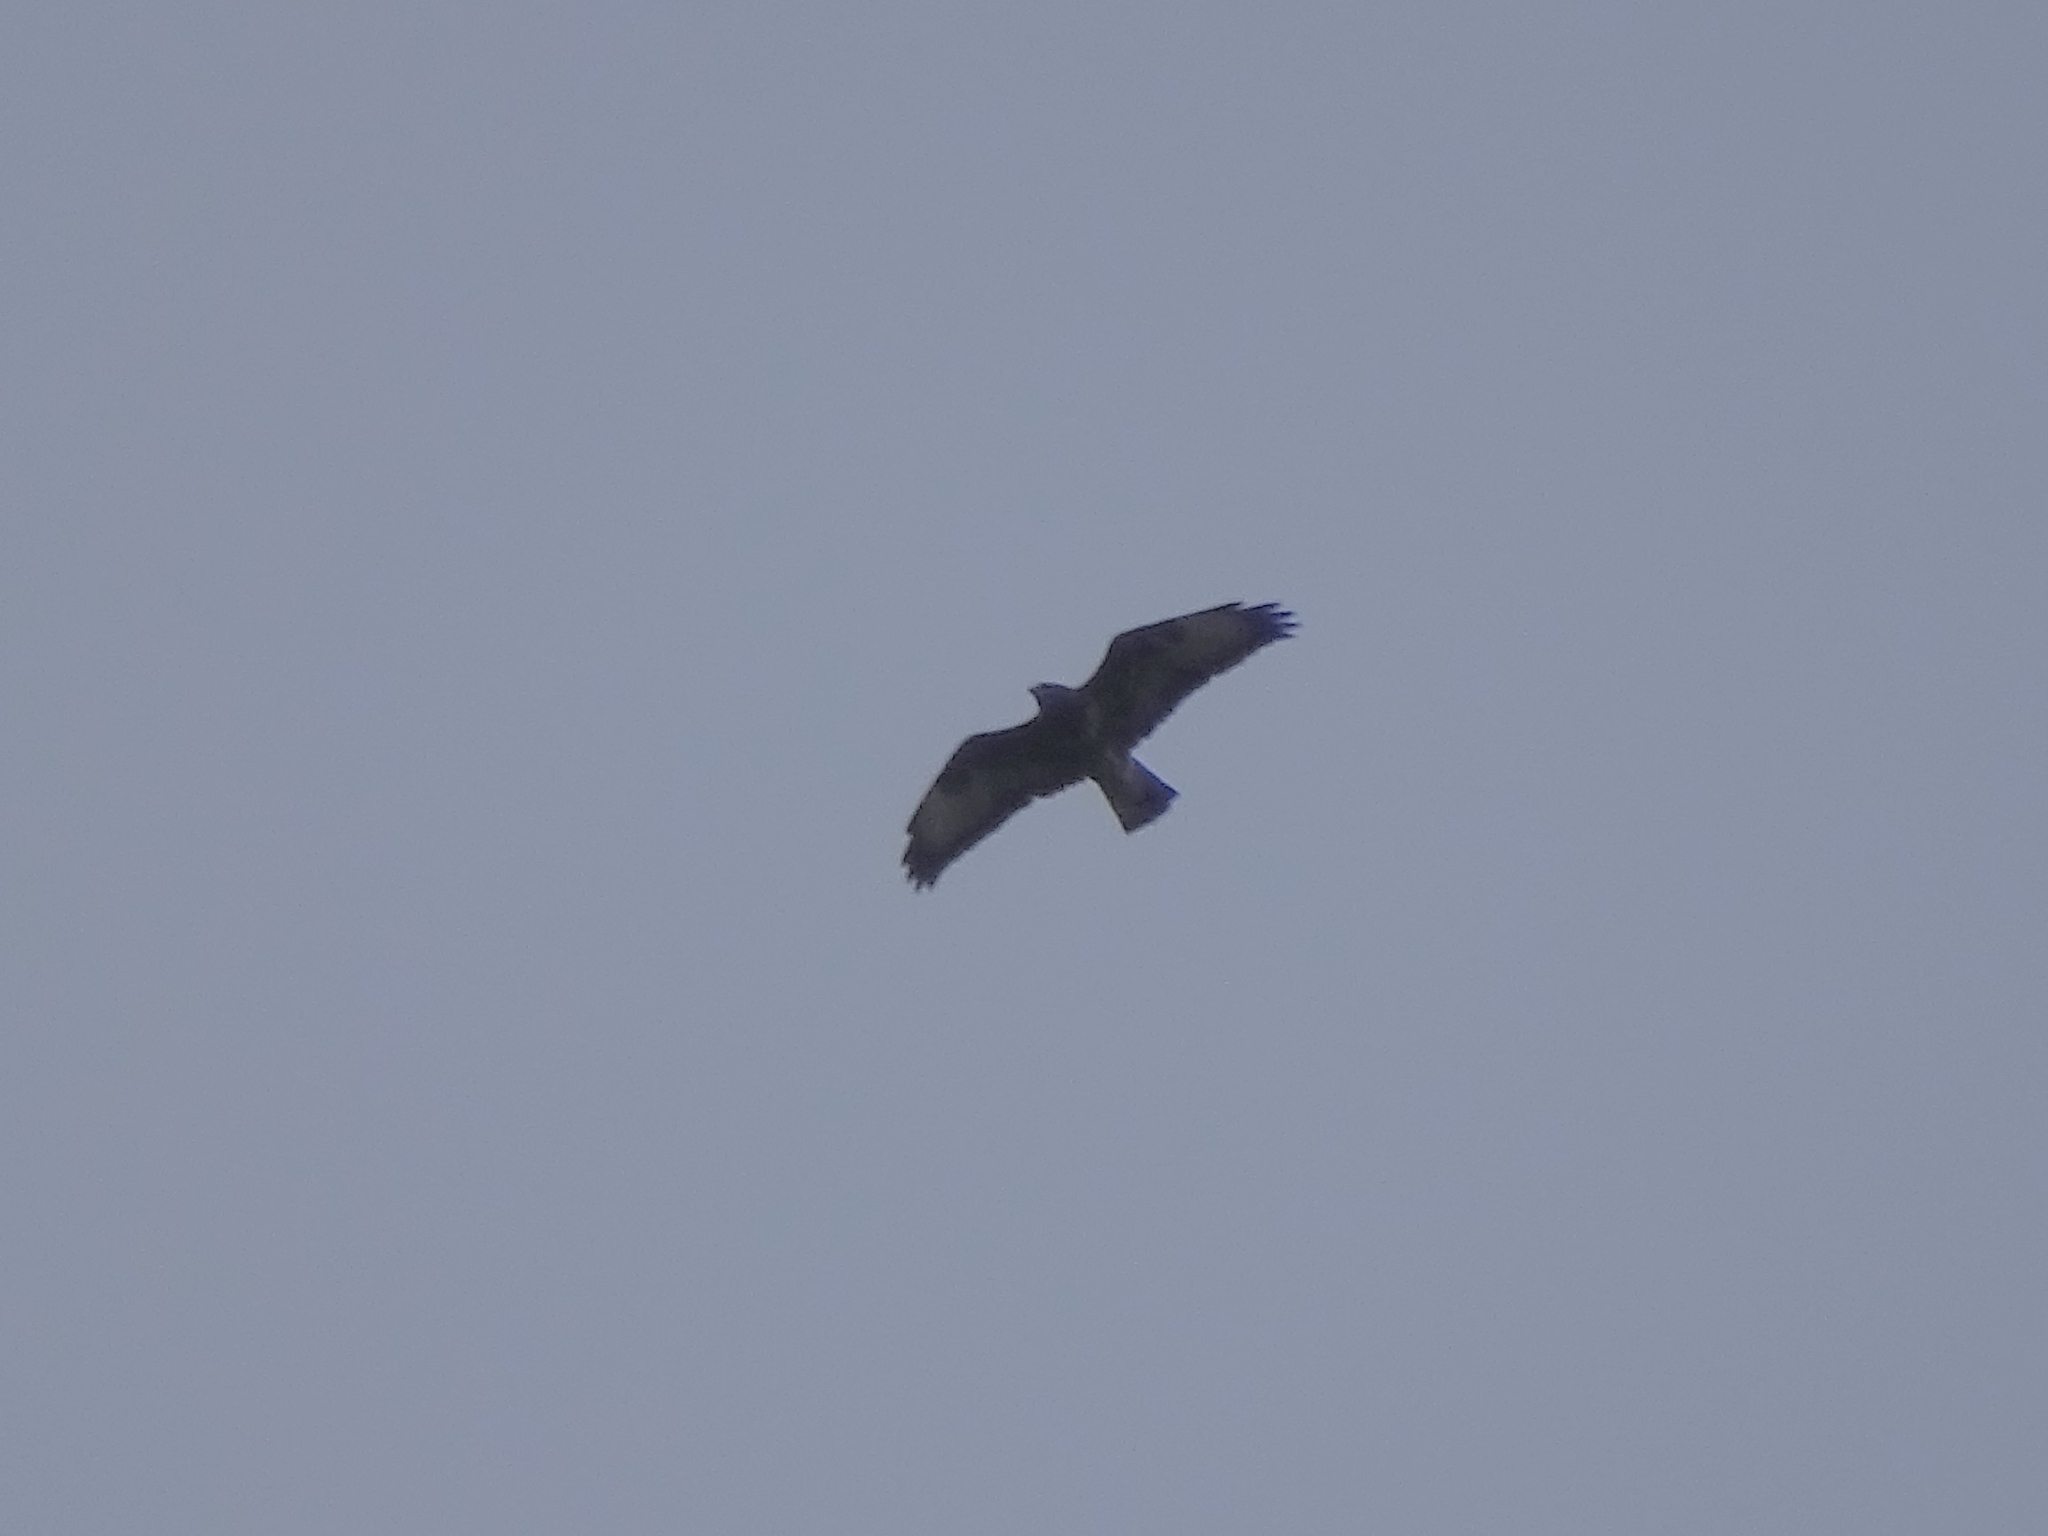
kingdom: Animalia
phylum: Chordata
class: Aves
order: Accipitriformes
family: Accipitridae
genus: Buteo
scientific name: Buteo buteo
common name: Common buzzard
